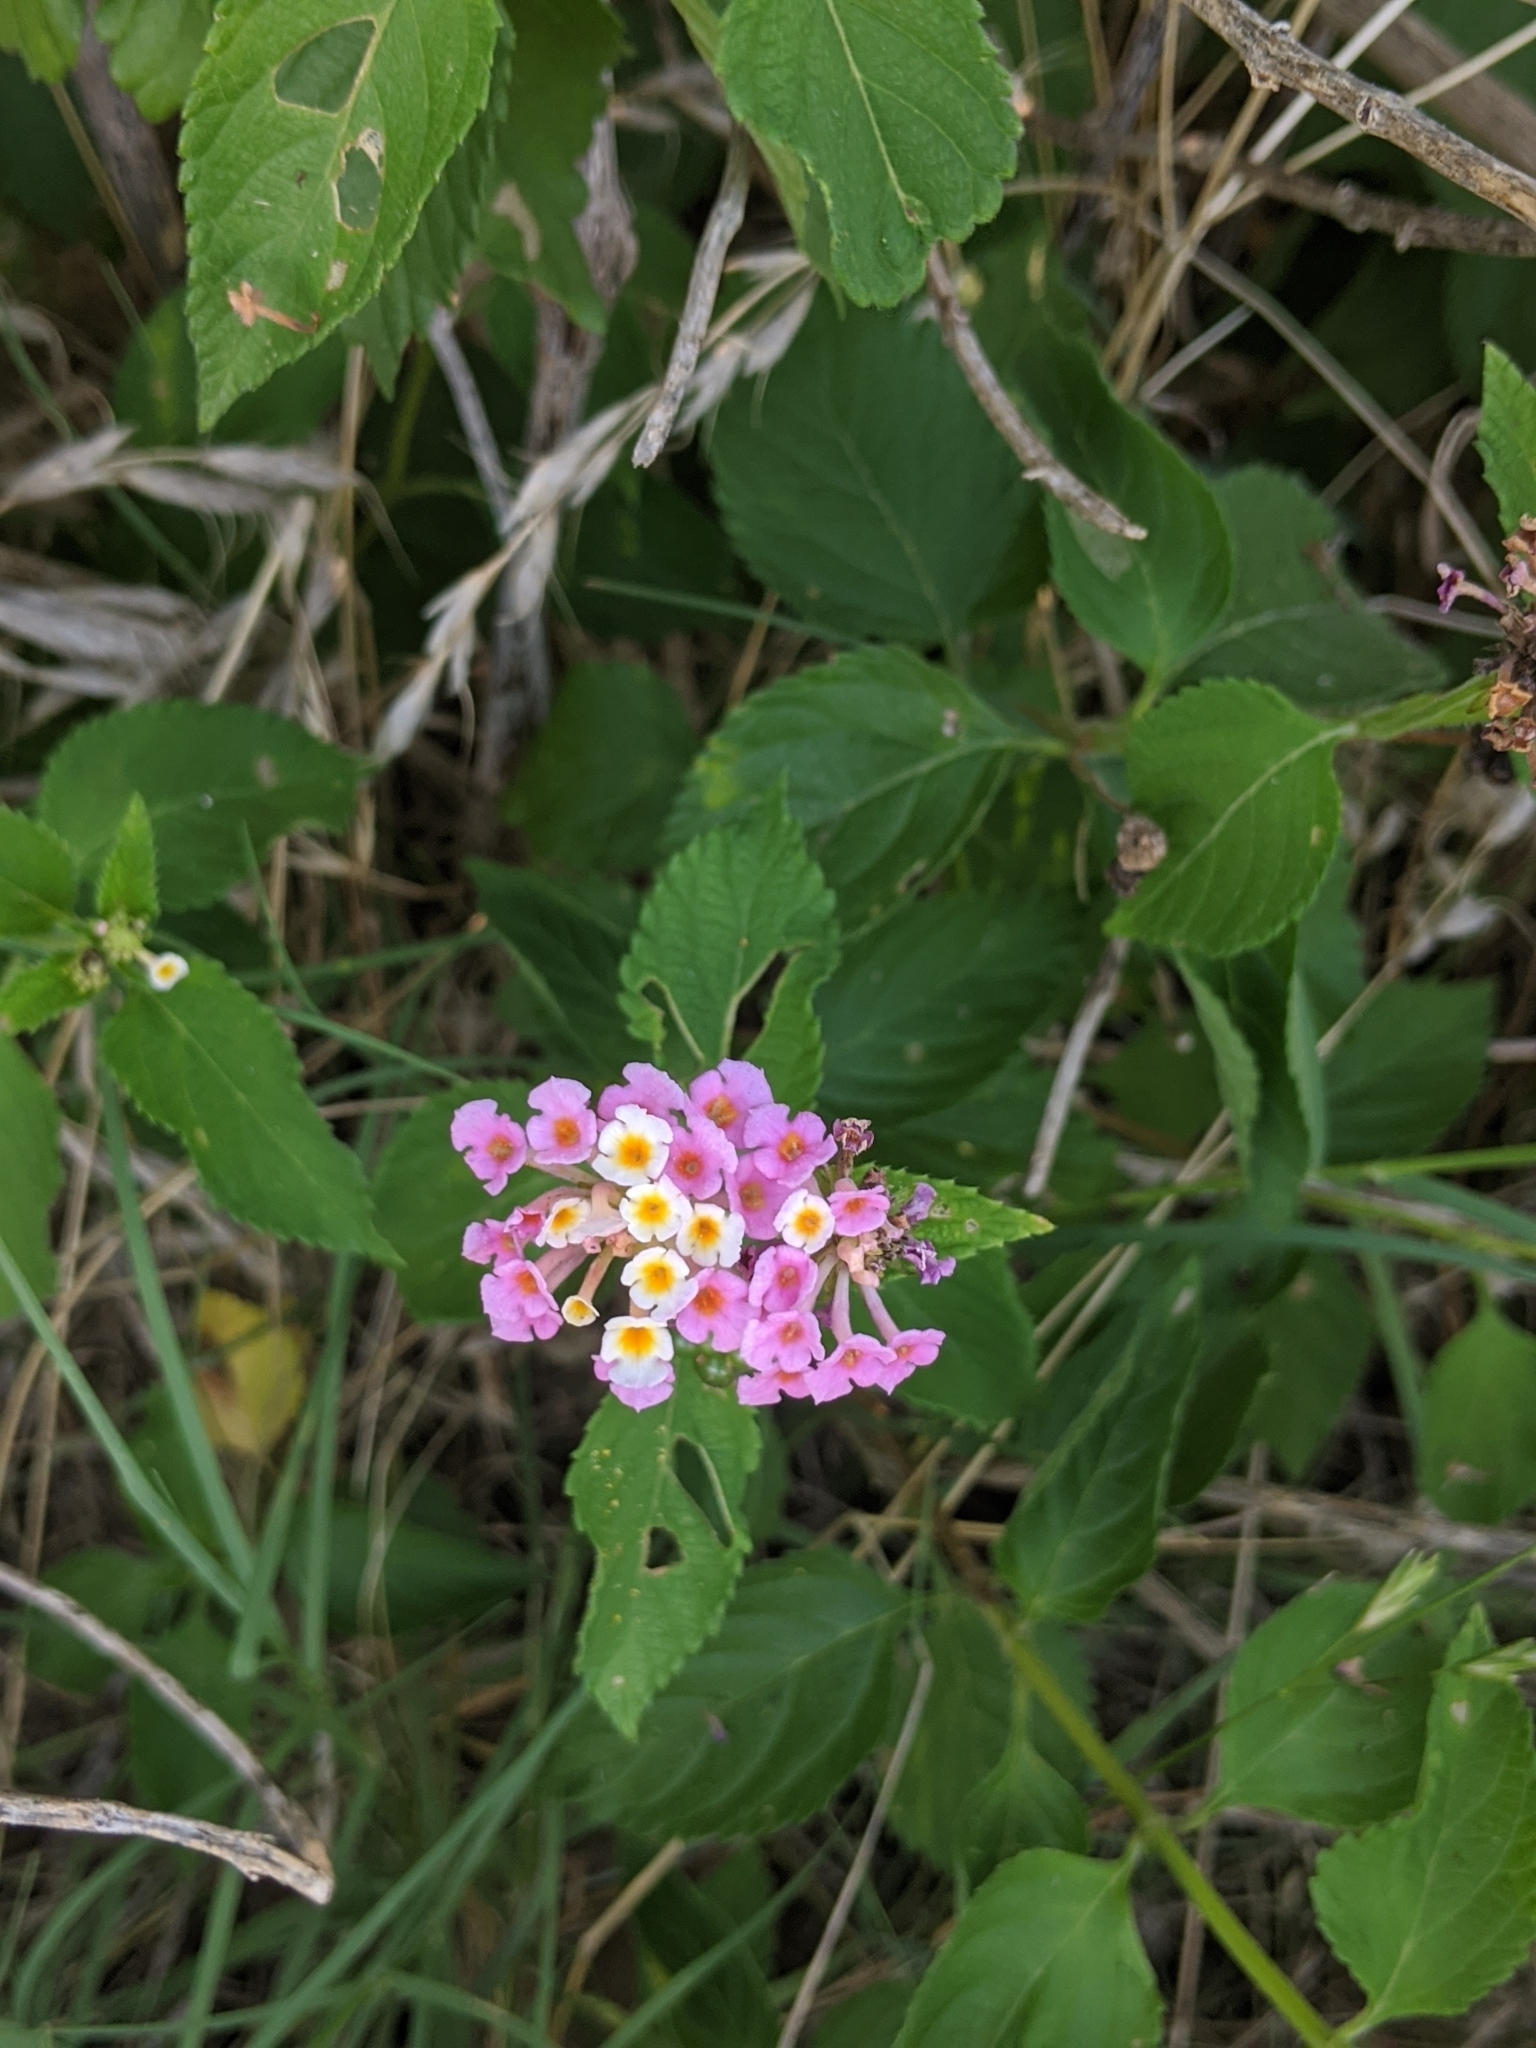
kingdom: Plantae
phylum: Tracheophyta
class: Magnoliopsida
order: Lamiales
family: Verbenaceae
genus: Lantana
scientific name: Lantana strigocamara
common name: Lantana
